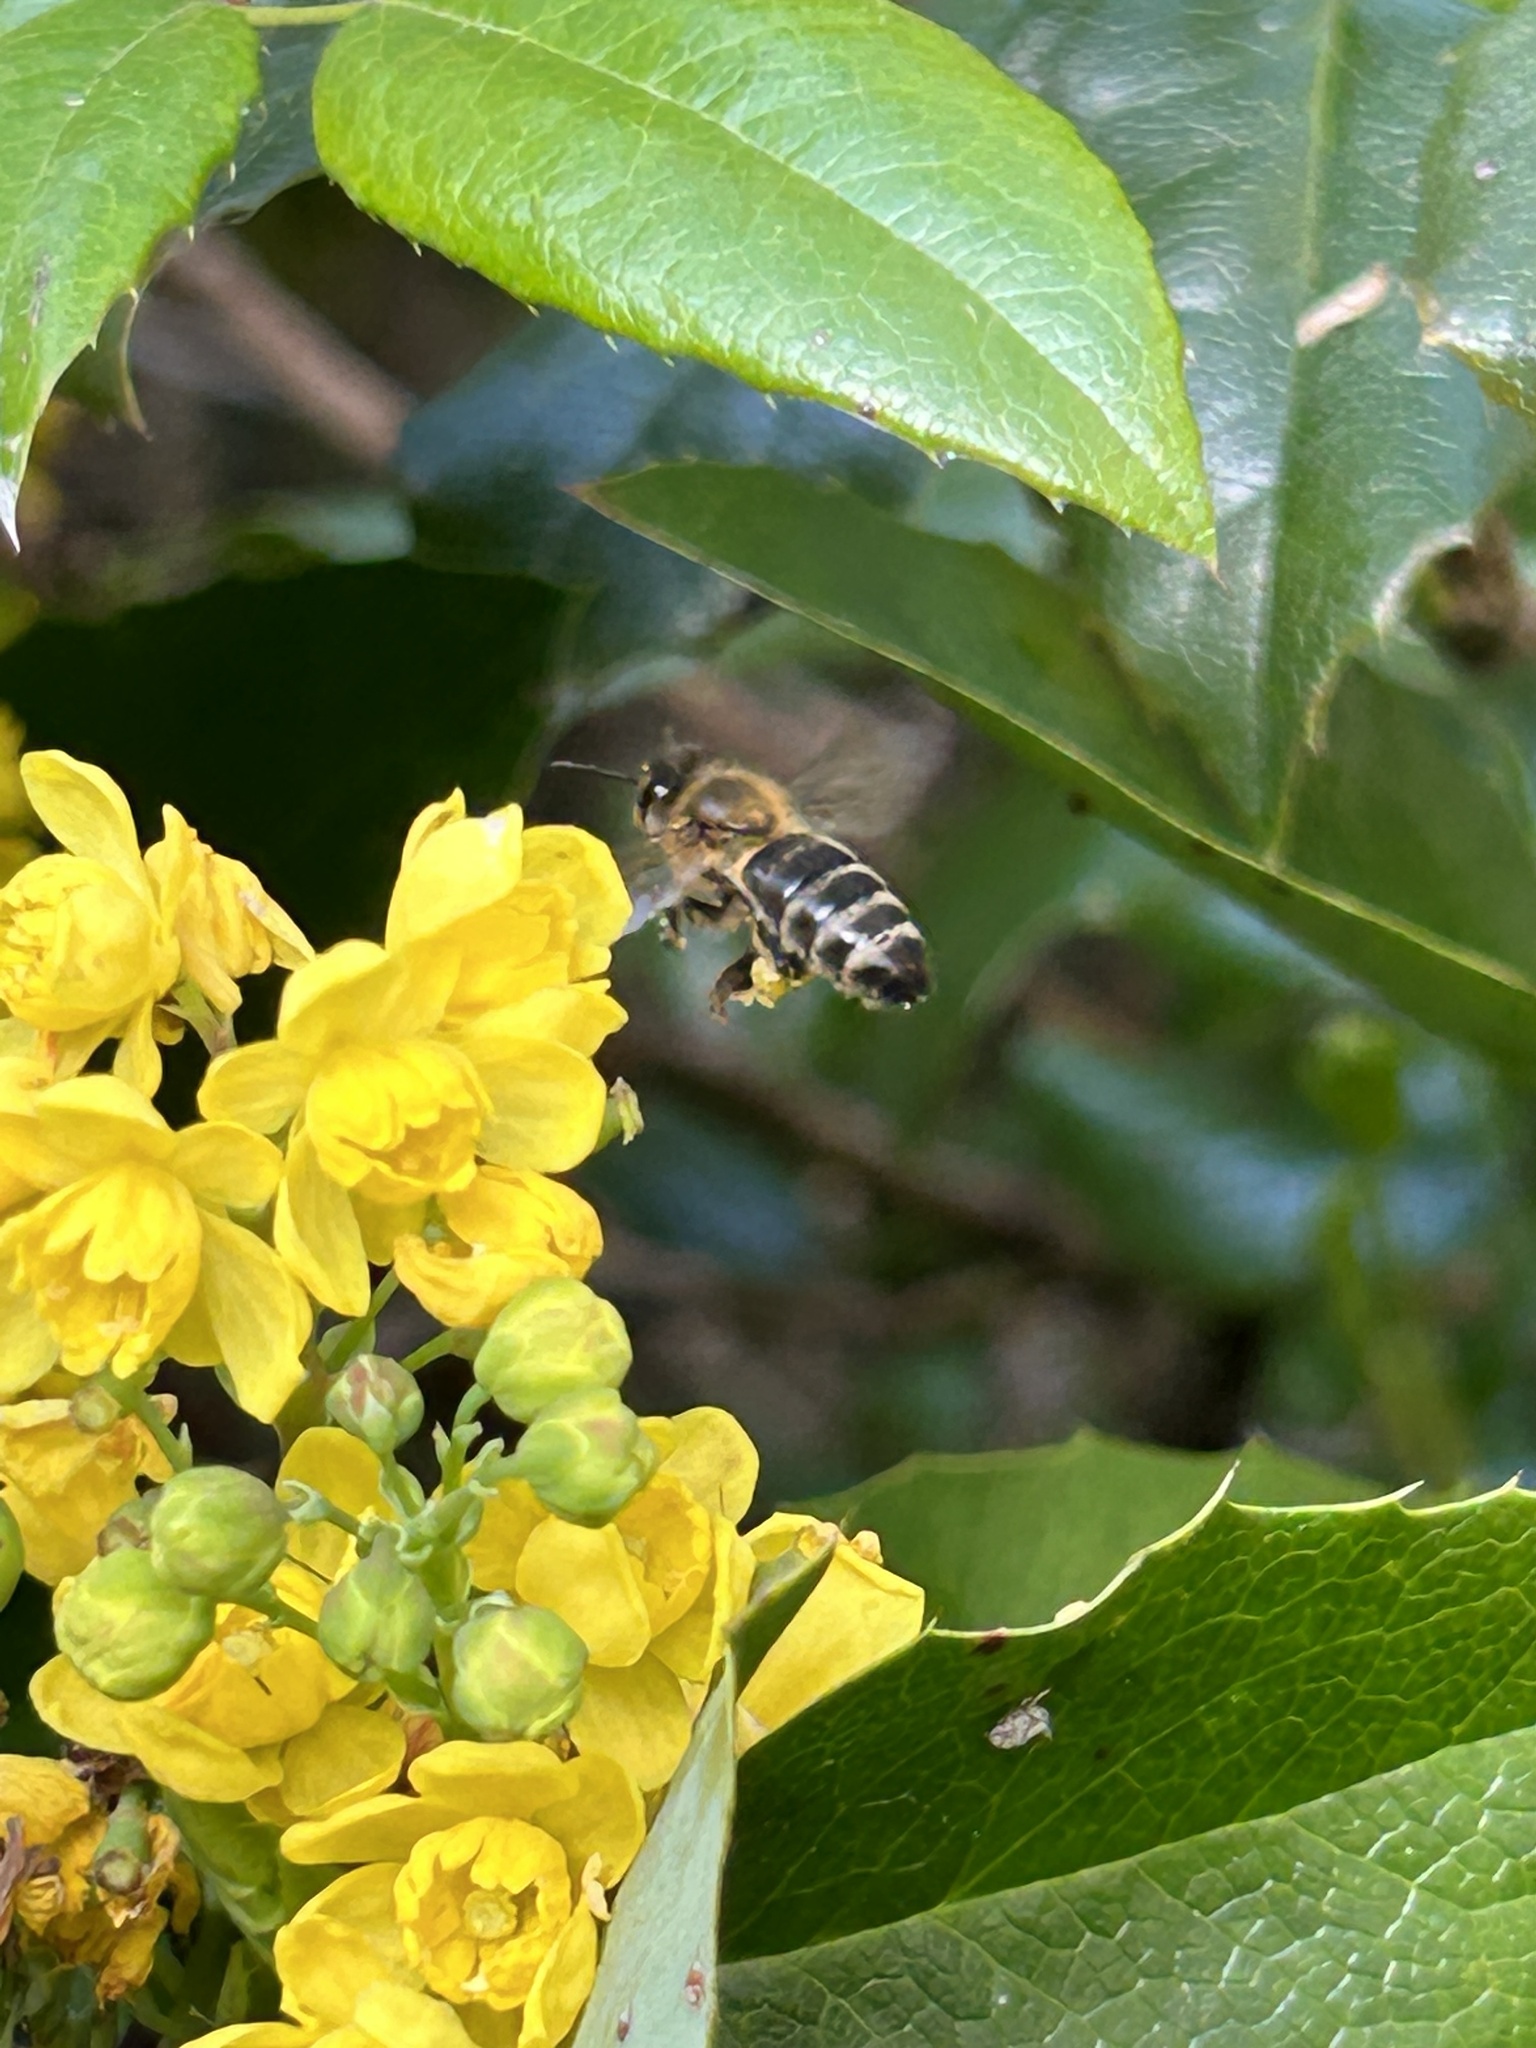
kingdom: Animalia
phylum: Arthropoda
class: Insecta
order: Hymenoptera
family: Apidae
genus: Apis
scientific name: Apis mellifera
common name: Honey bee
